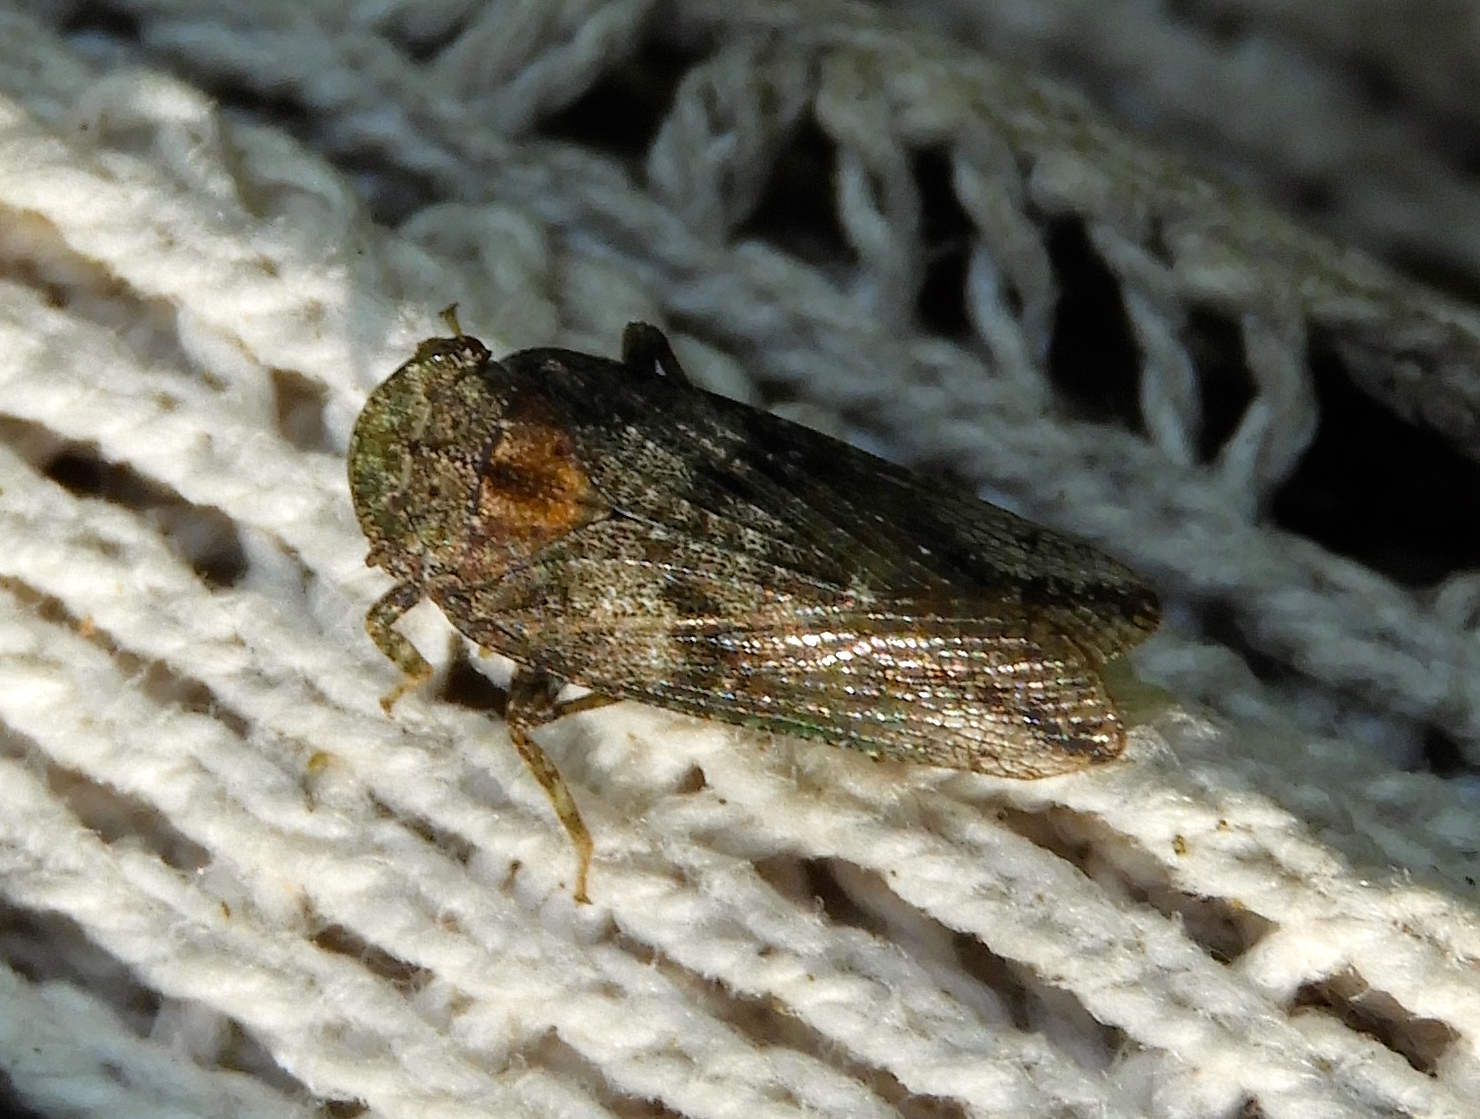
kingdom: Animalia
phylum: Arthropoda
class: Insecta
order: Hemiptera
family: Fulgoridae
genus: Cyrpoptus
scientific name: Cyrpoptus suavis
